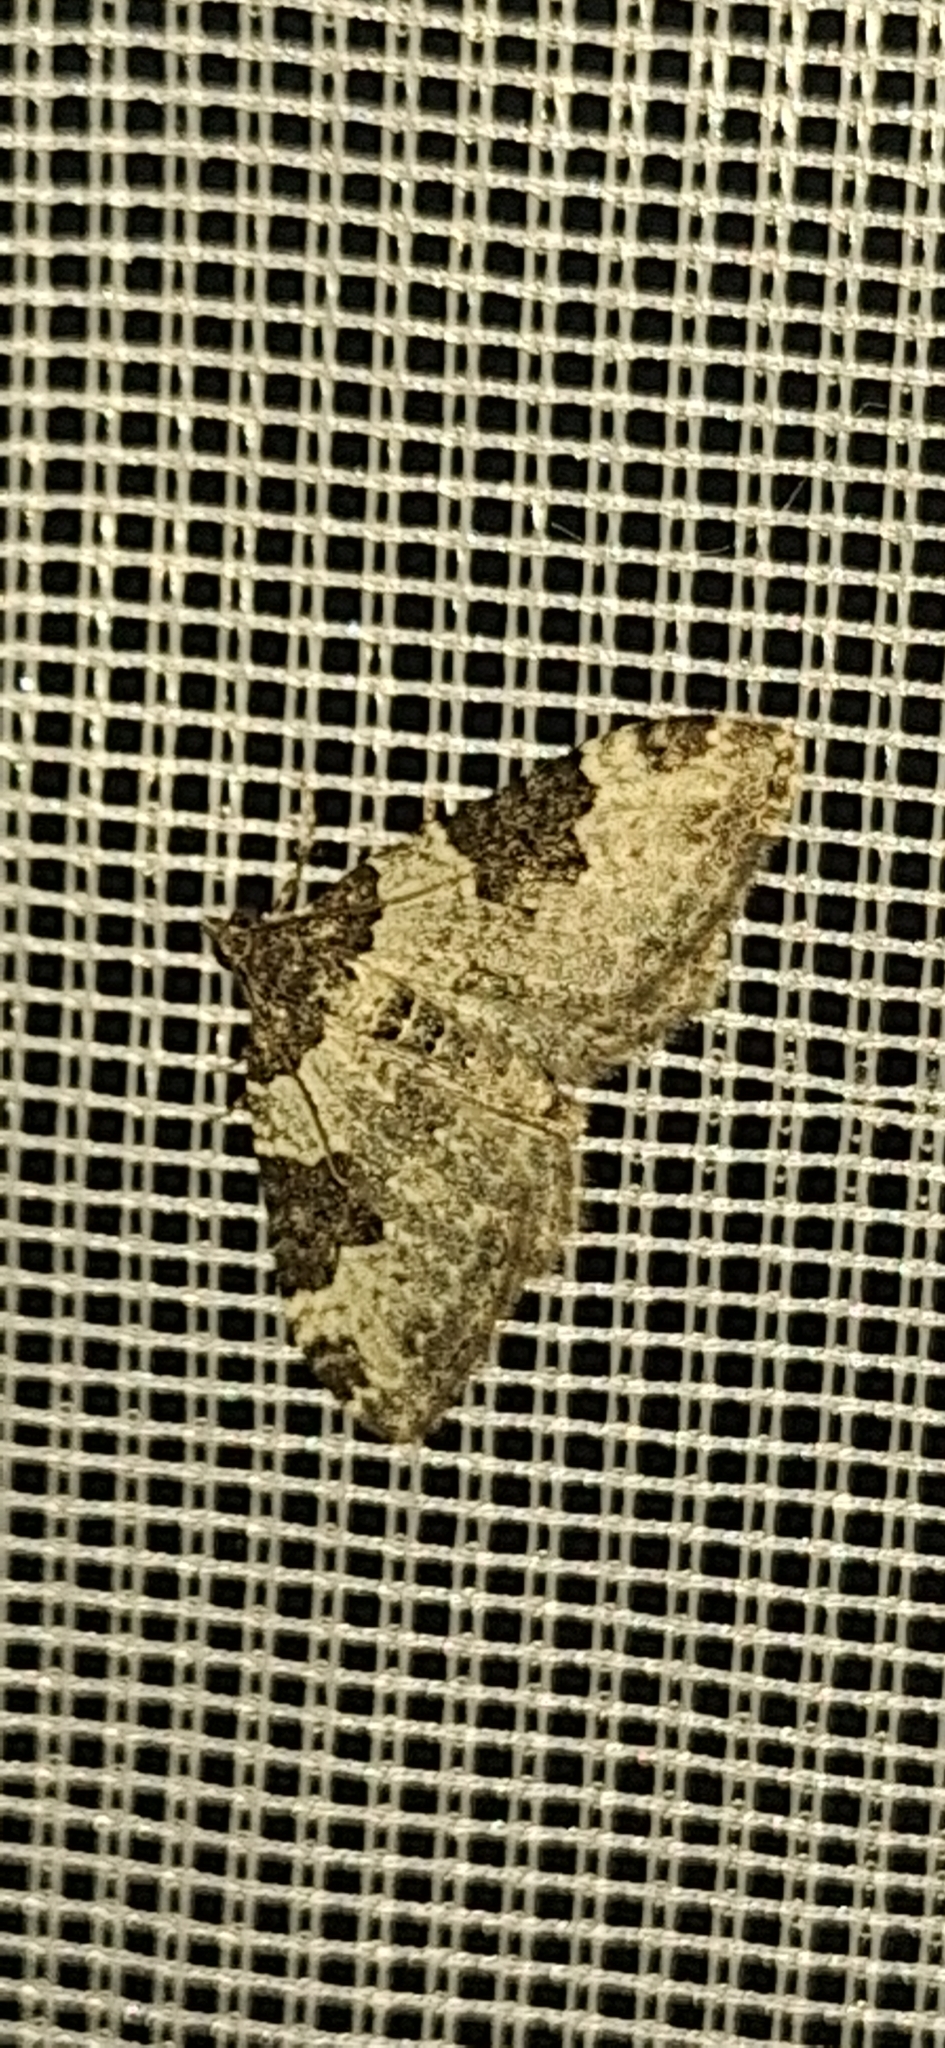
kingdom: Animalia
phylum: Arthropoda
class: Insecta
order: Lepidoptera
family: Geometridae
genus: Xanthorhoe
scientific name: Xanthorhoe fluctuata
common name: Garden carpet
